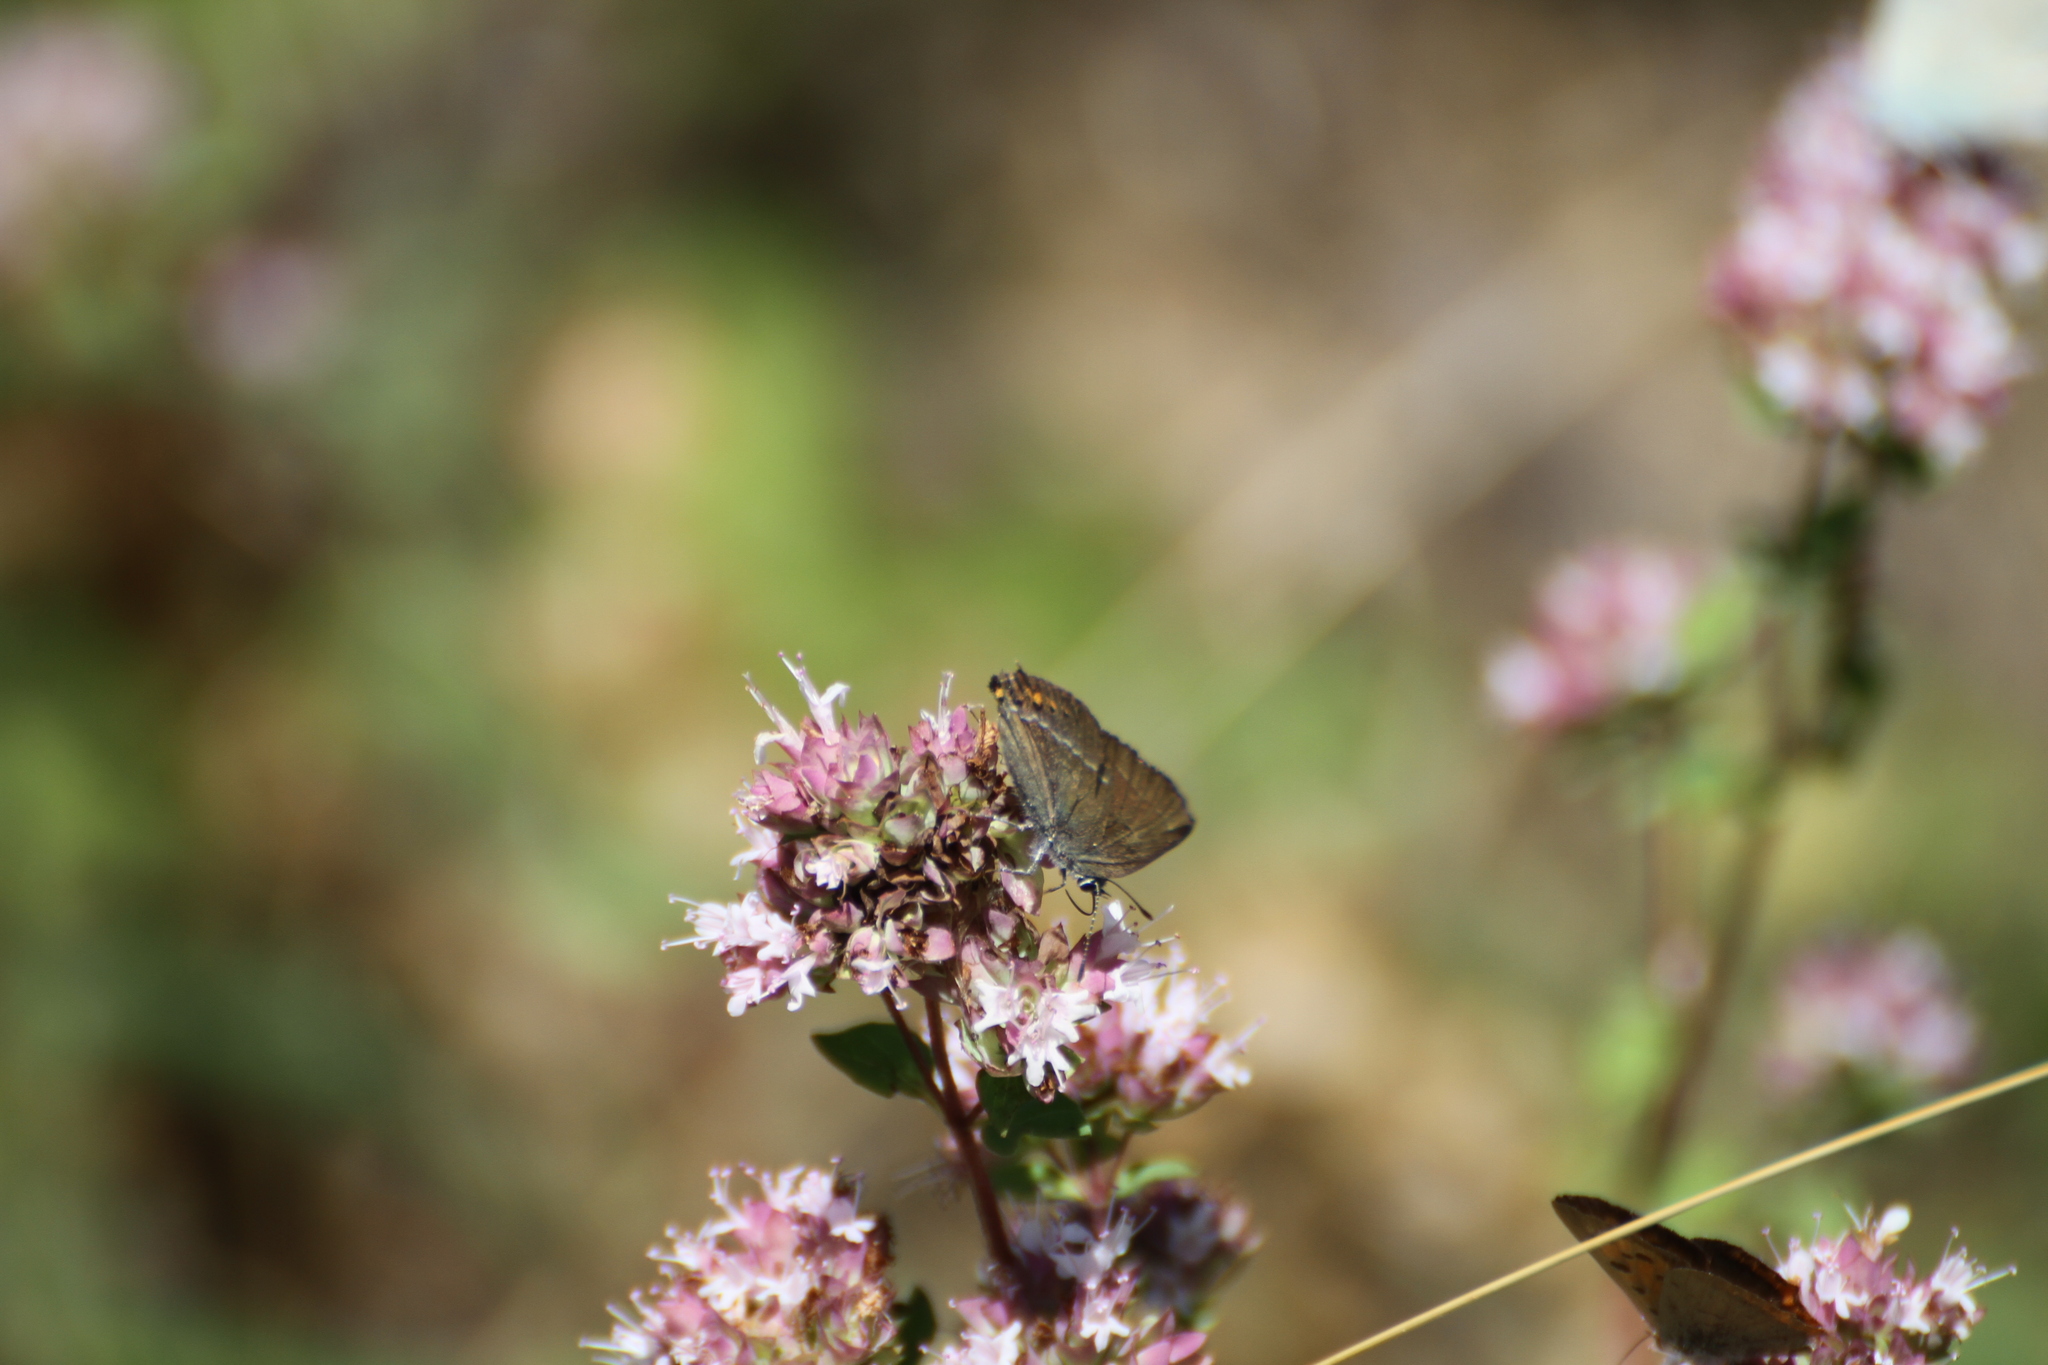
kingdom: Animalia
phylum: Arthropoda
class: Insecta
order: Lepidoptera
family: Lycaenidae
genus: Tuttiola
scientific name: Tuttiola spini
